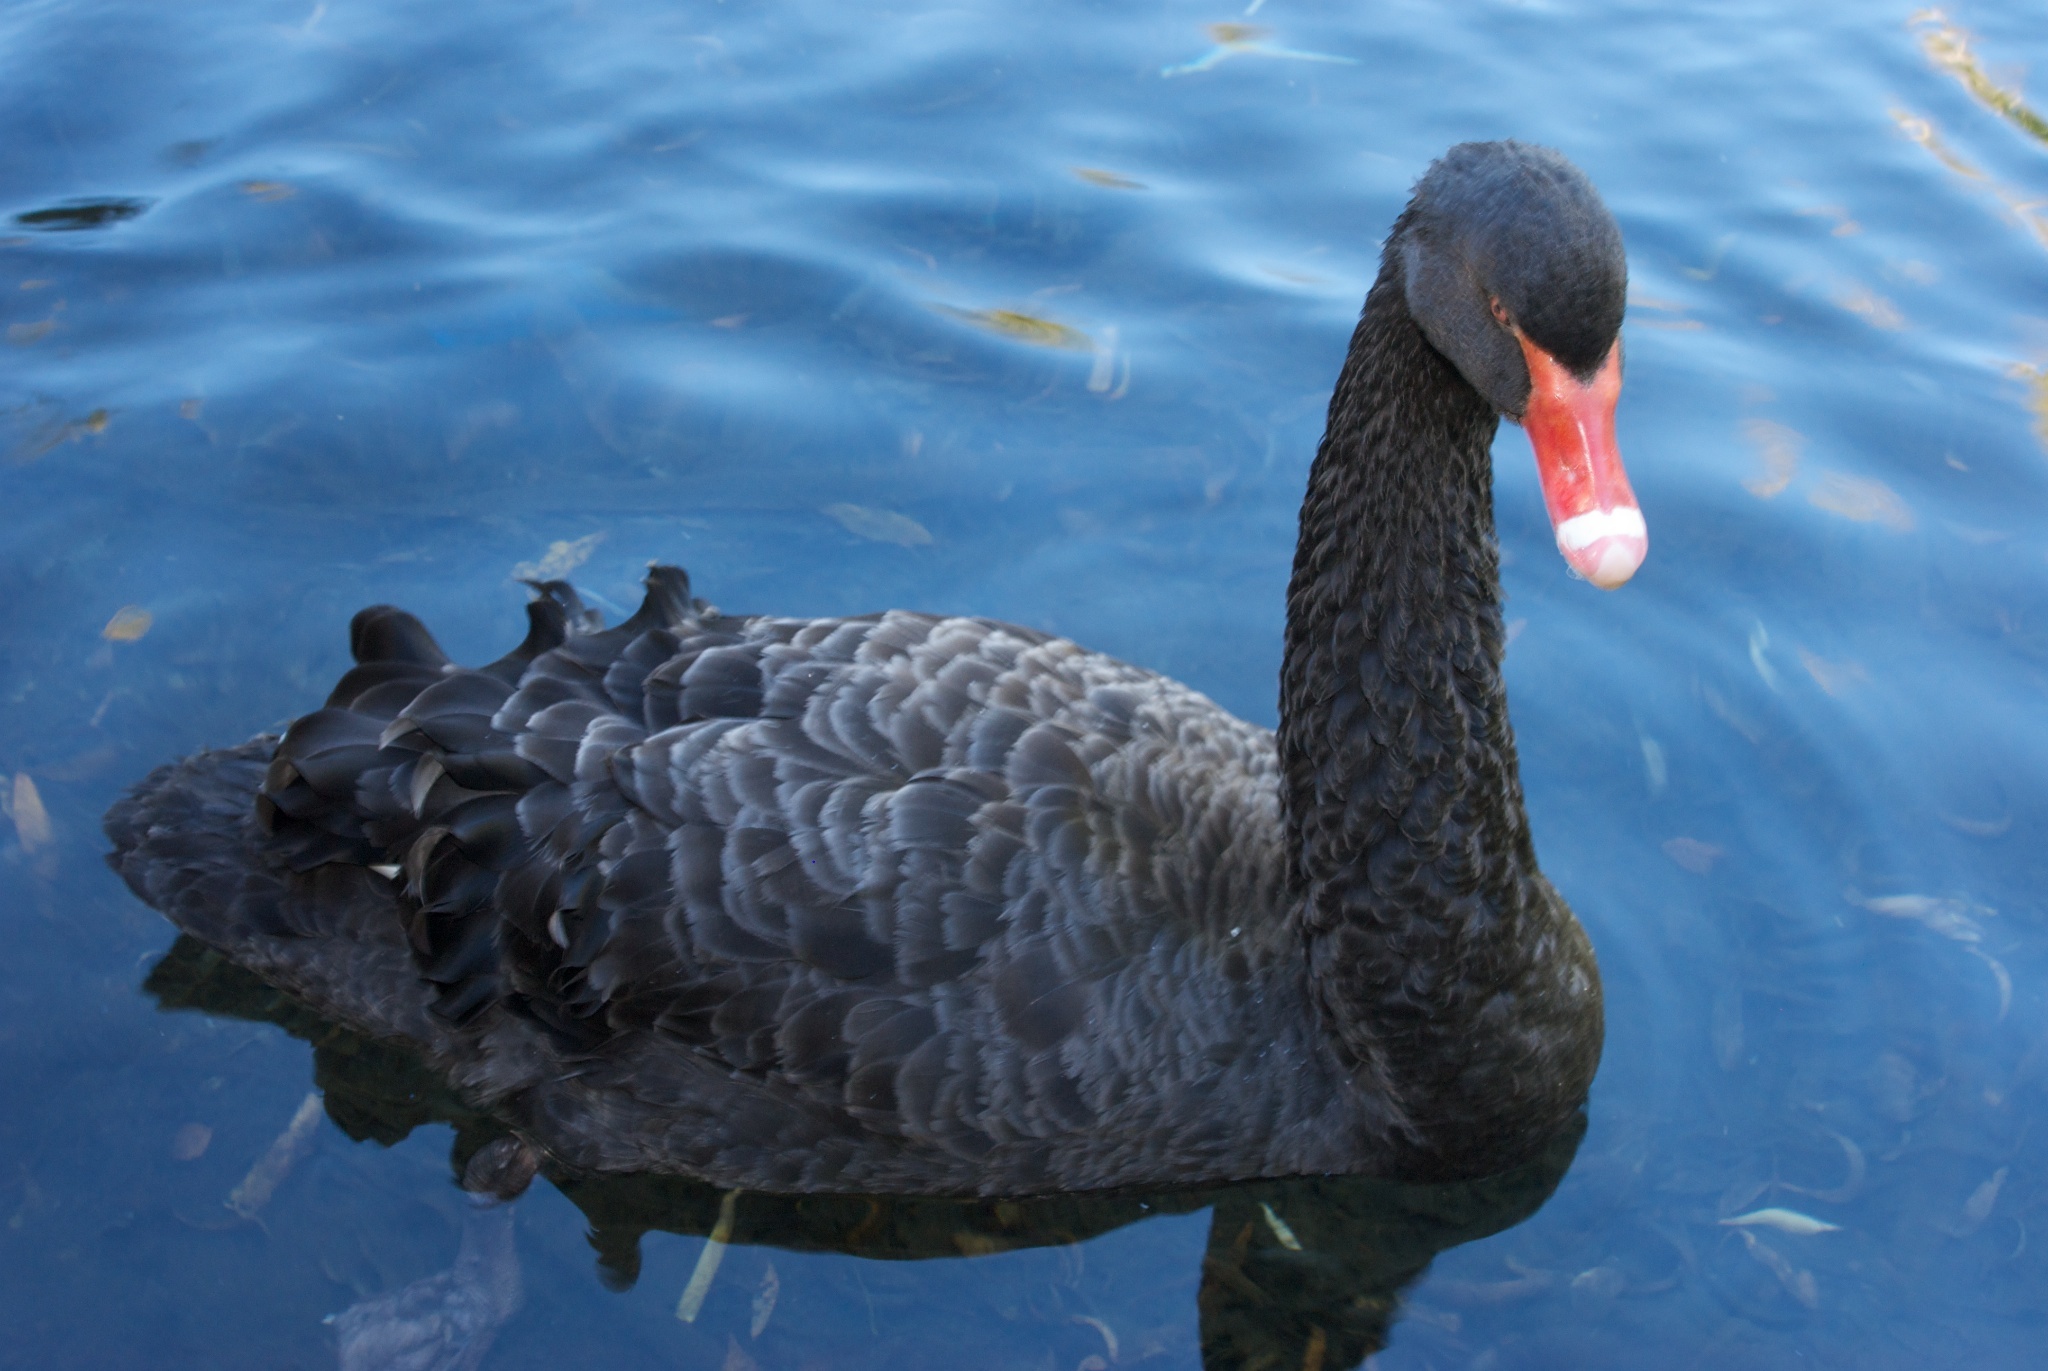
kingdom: Animalia
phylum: Chordata
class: Aves
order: Anseriformes
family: Anatidae
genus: Cygnus
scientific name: Cygnus atratus
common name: Black swan
